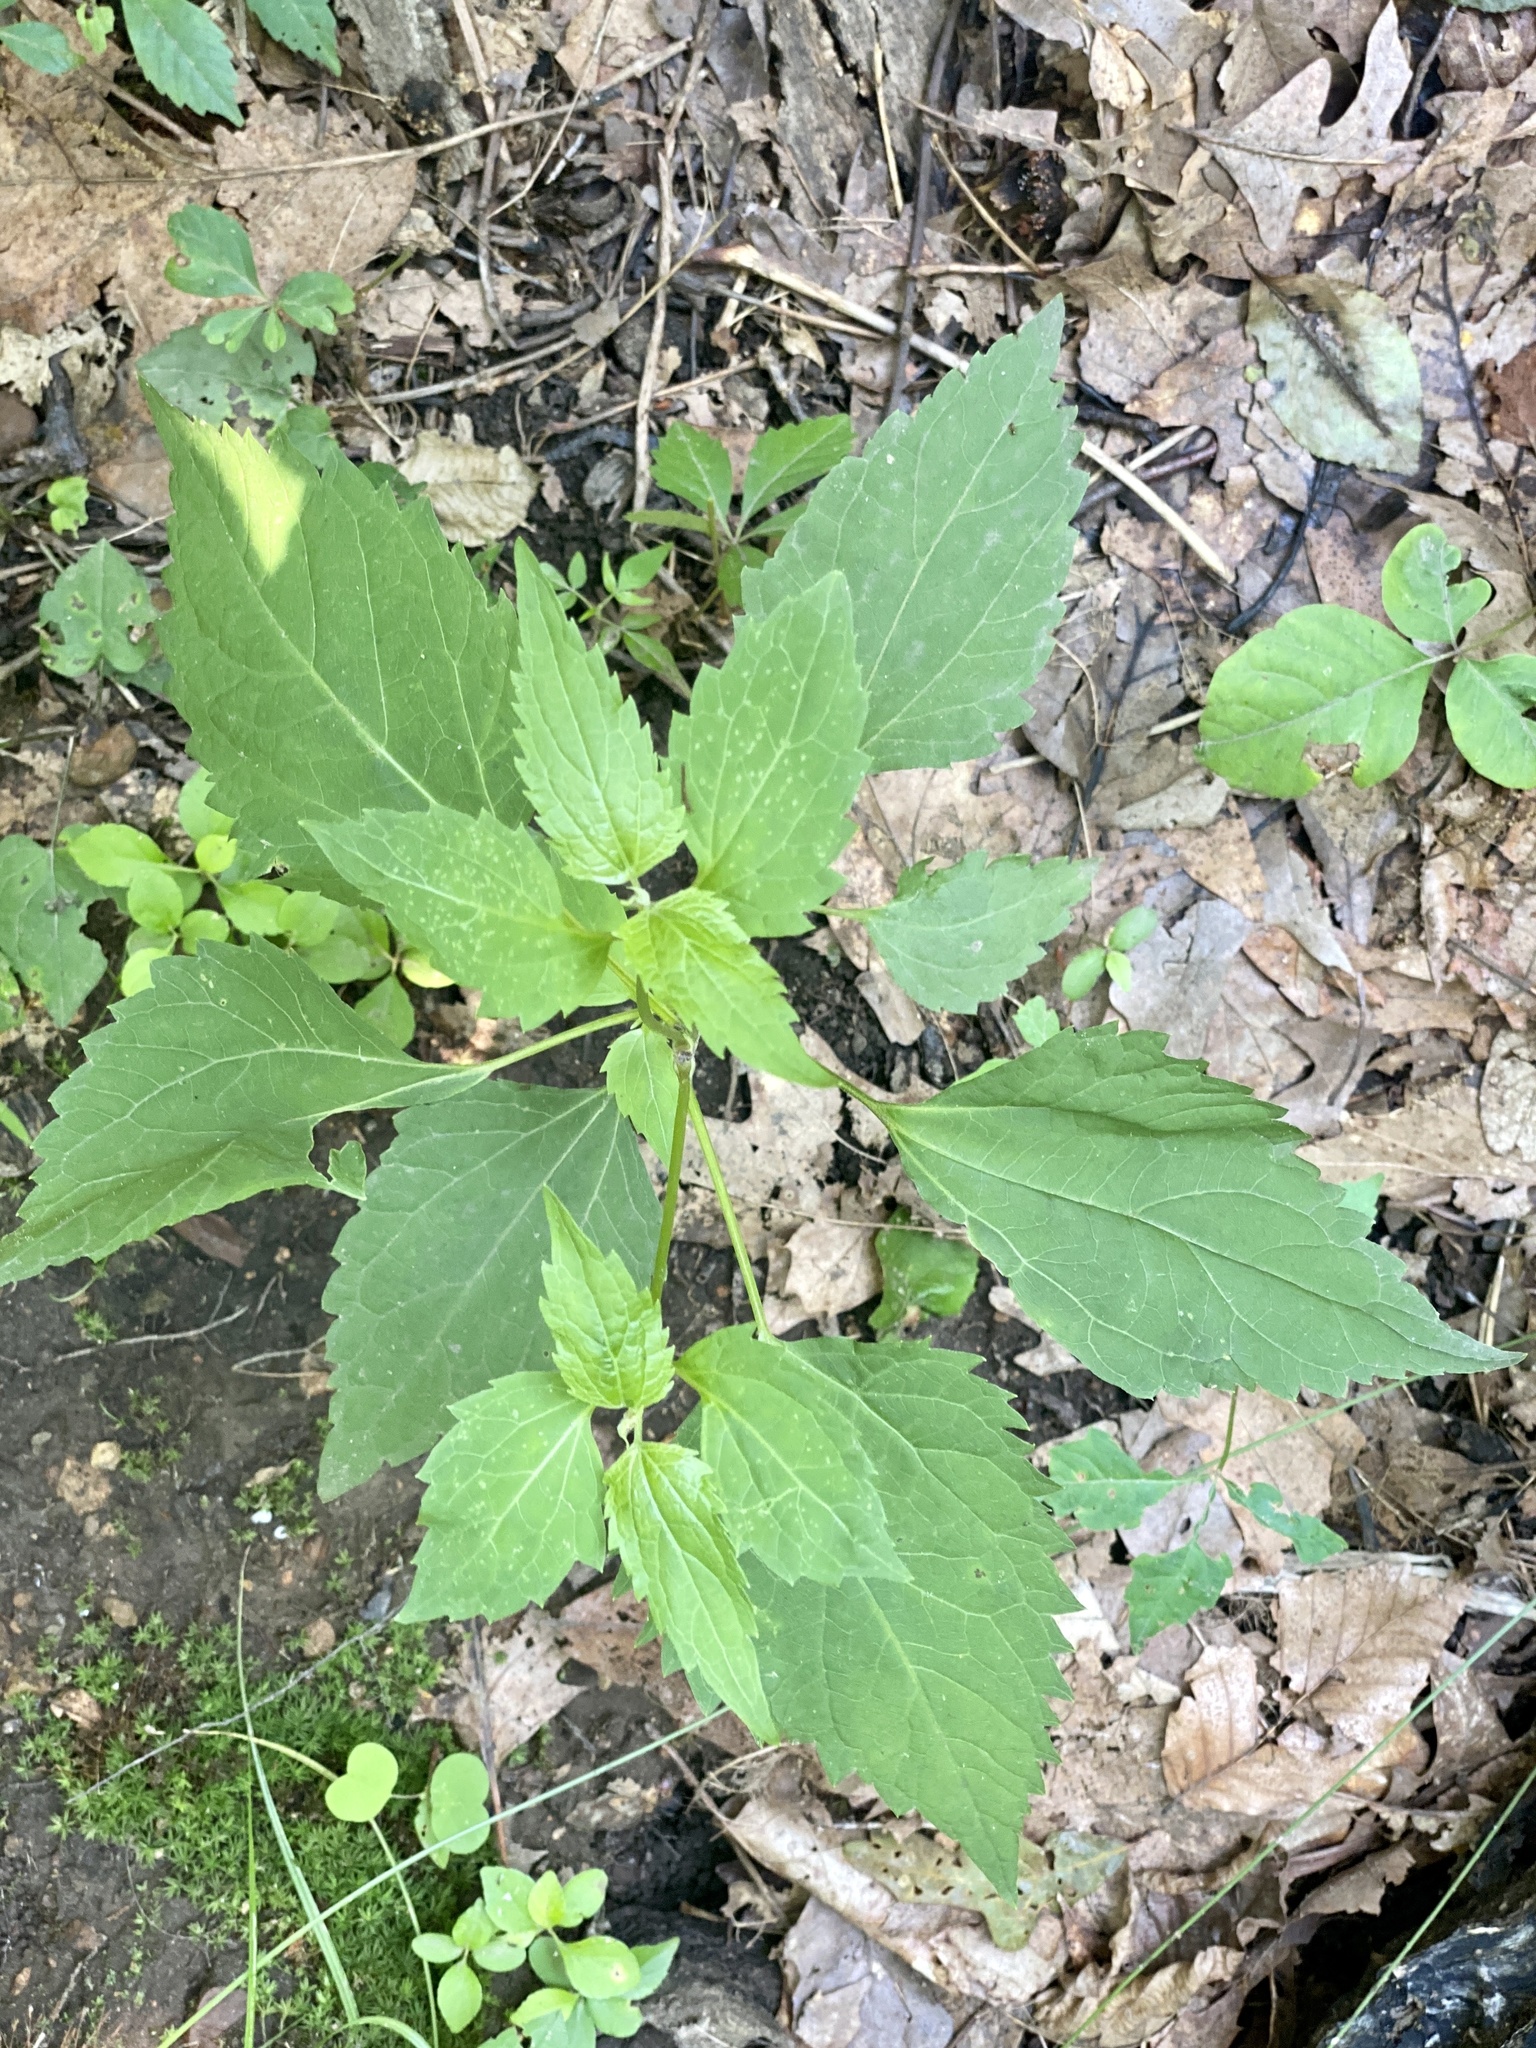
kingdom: Plantae
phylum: Tracheophyta
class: Magnoliopsida
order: Asterales
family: Asteraceae
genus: Ageratina
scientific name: Ageratina altissima
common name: White snakeroot
